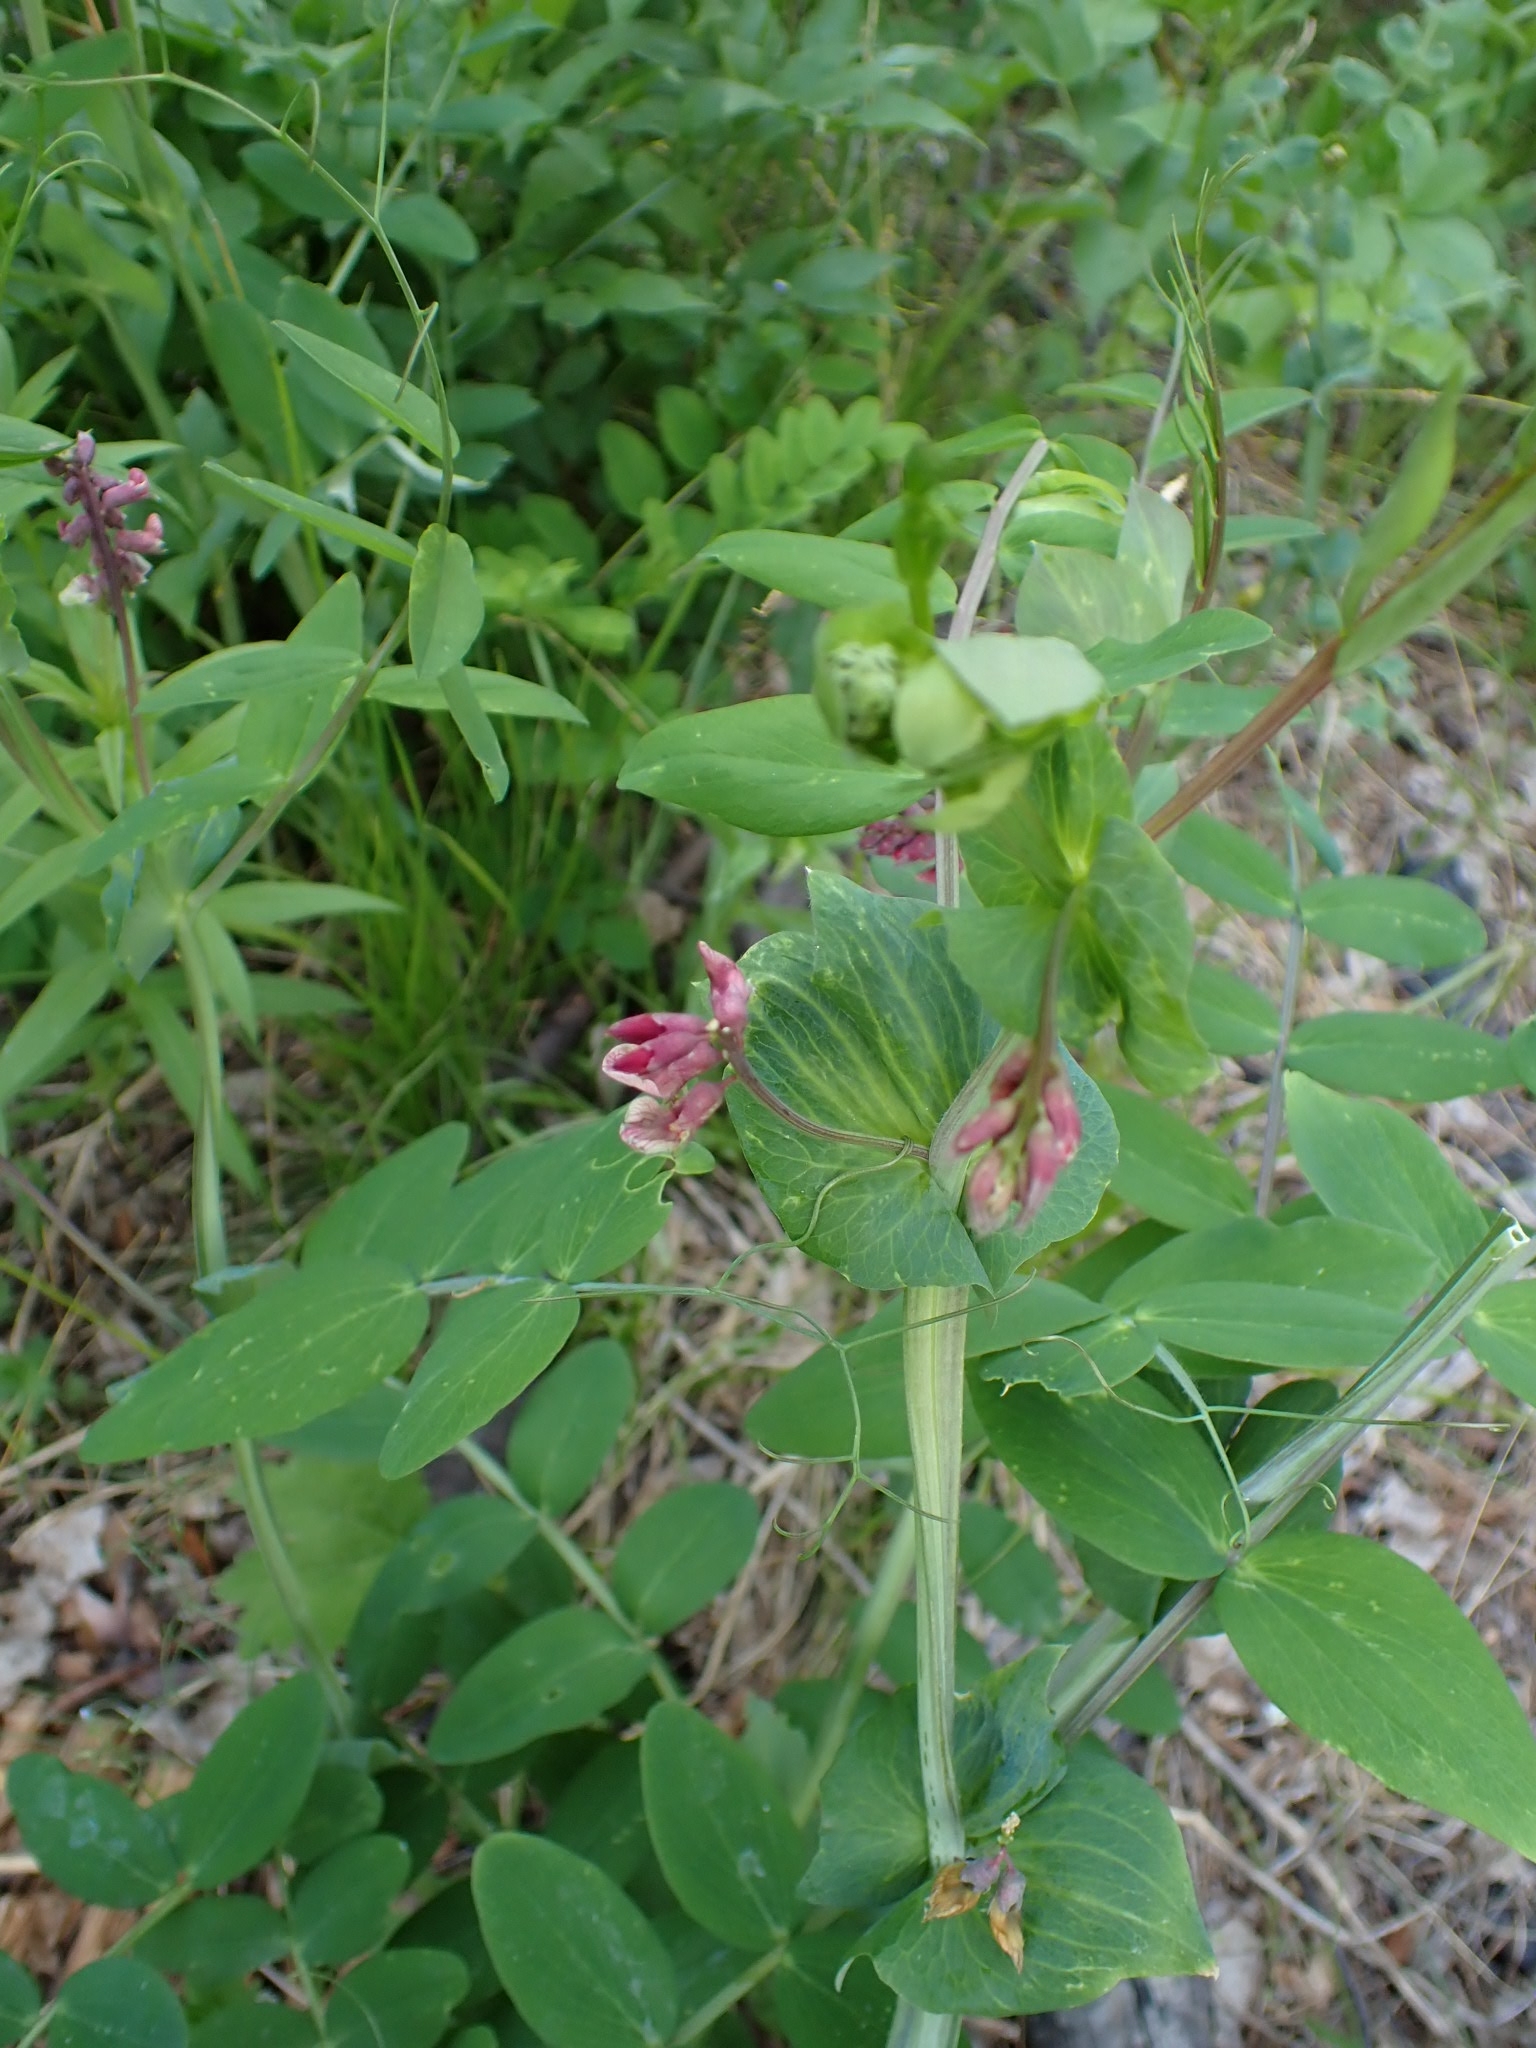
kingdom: Plantae
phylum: Tracheophyta
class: Magnoliopsida
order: Fabales
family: Fabaceae
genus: Lathyrus
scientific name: Lathyrus pisiformis
